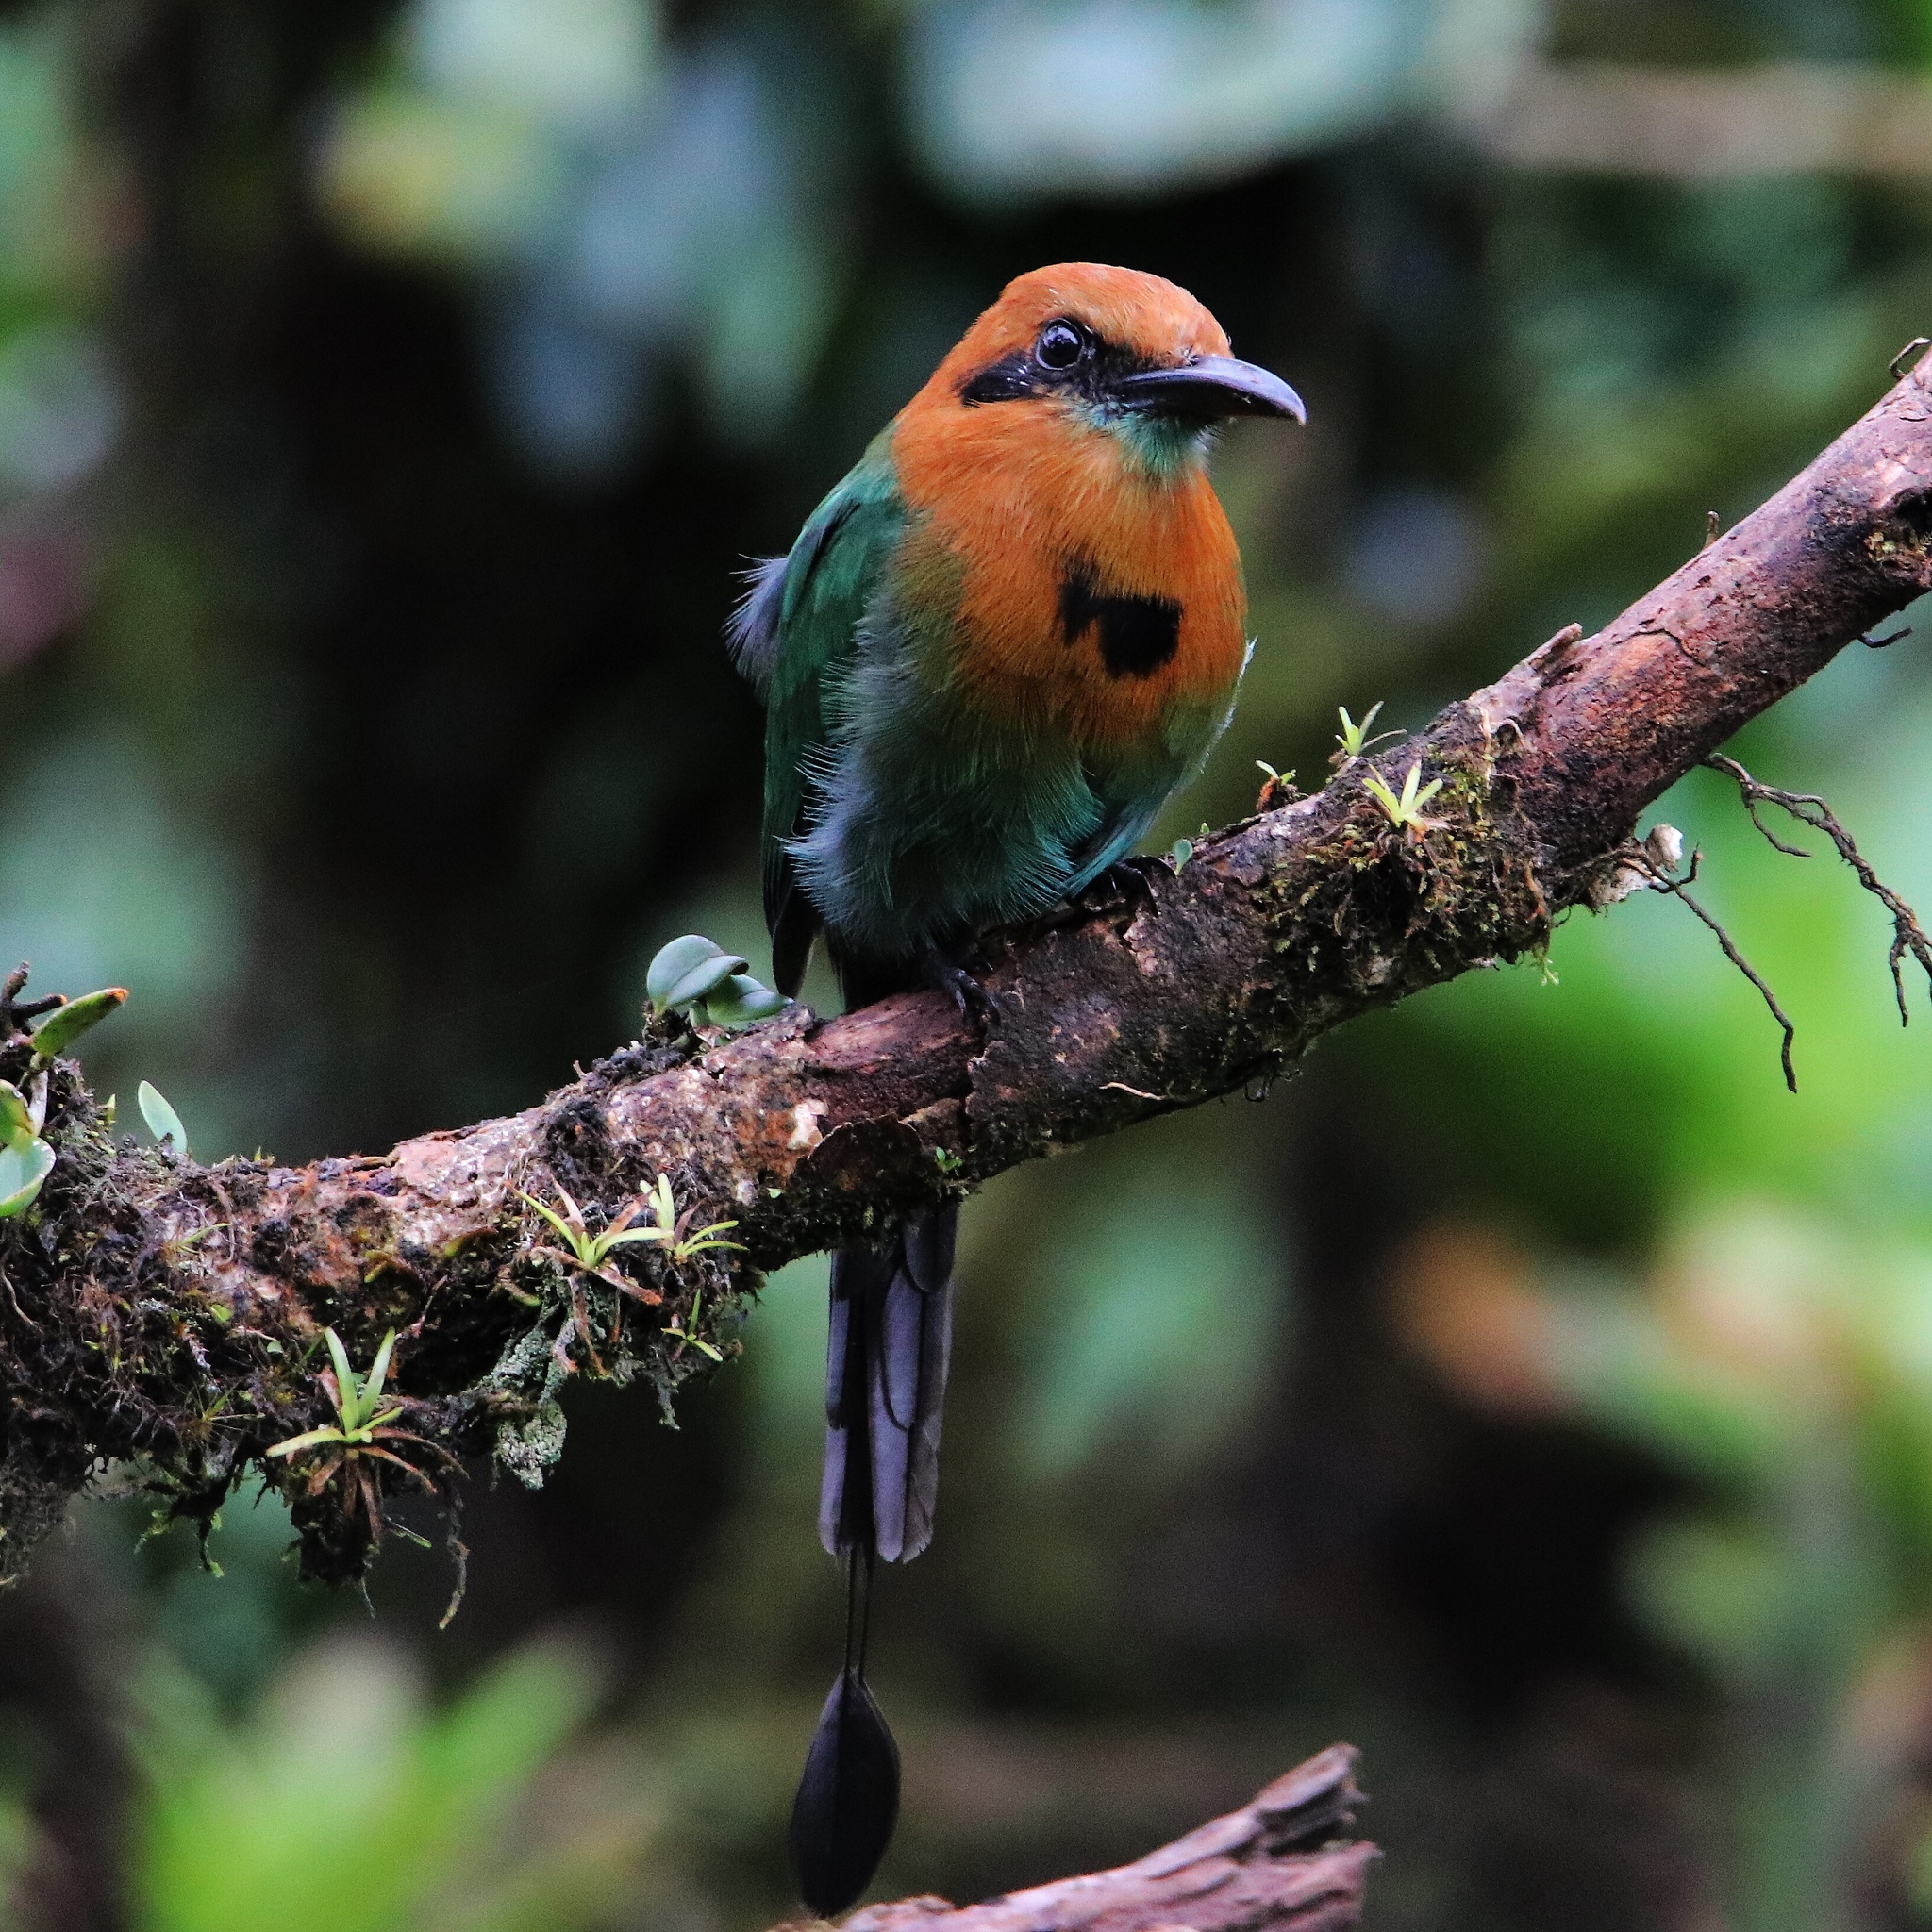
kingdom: Animalia
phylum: Chordata
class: Aves
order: Coraciiformes
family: Momotidae
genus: Electron
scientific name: Electron platyrhynchum
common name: Broad-billed motmot
